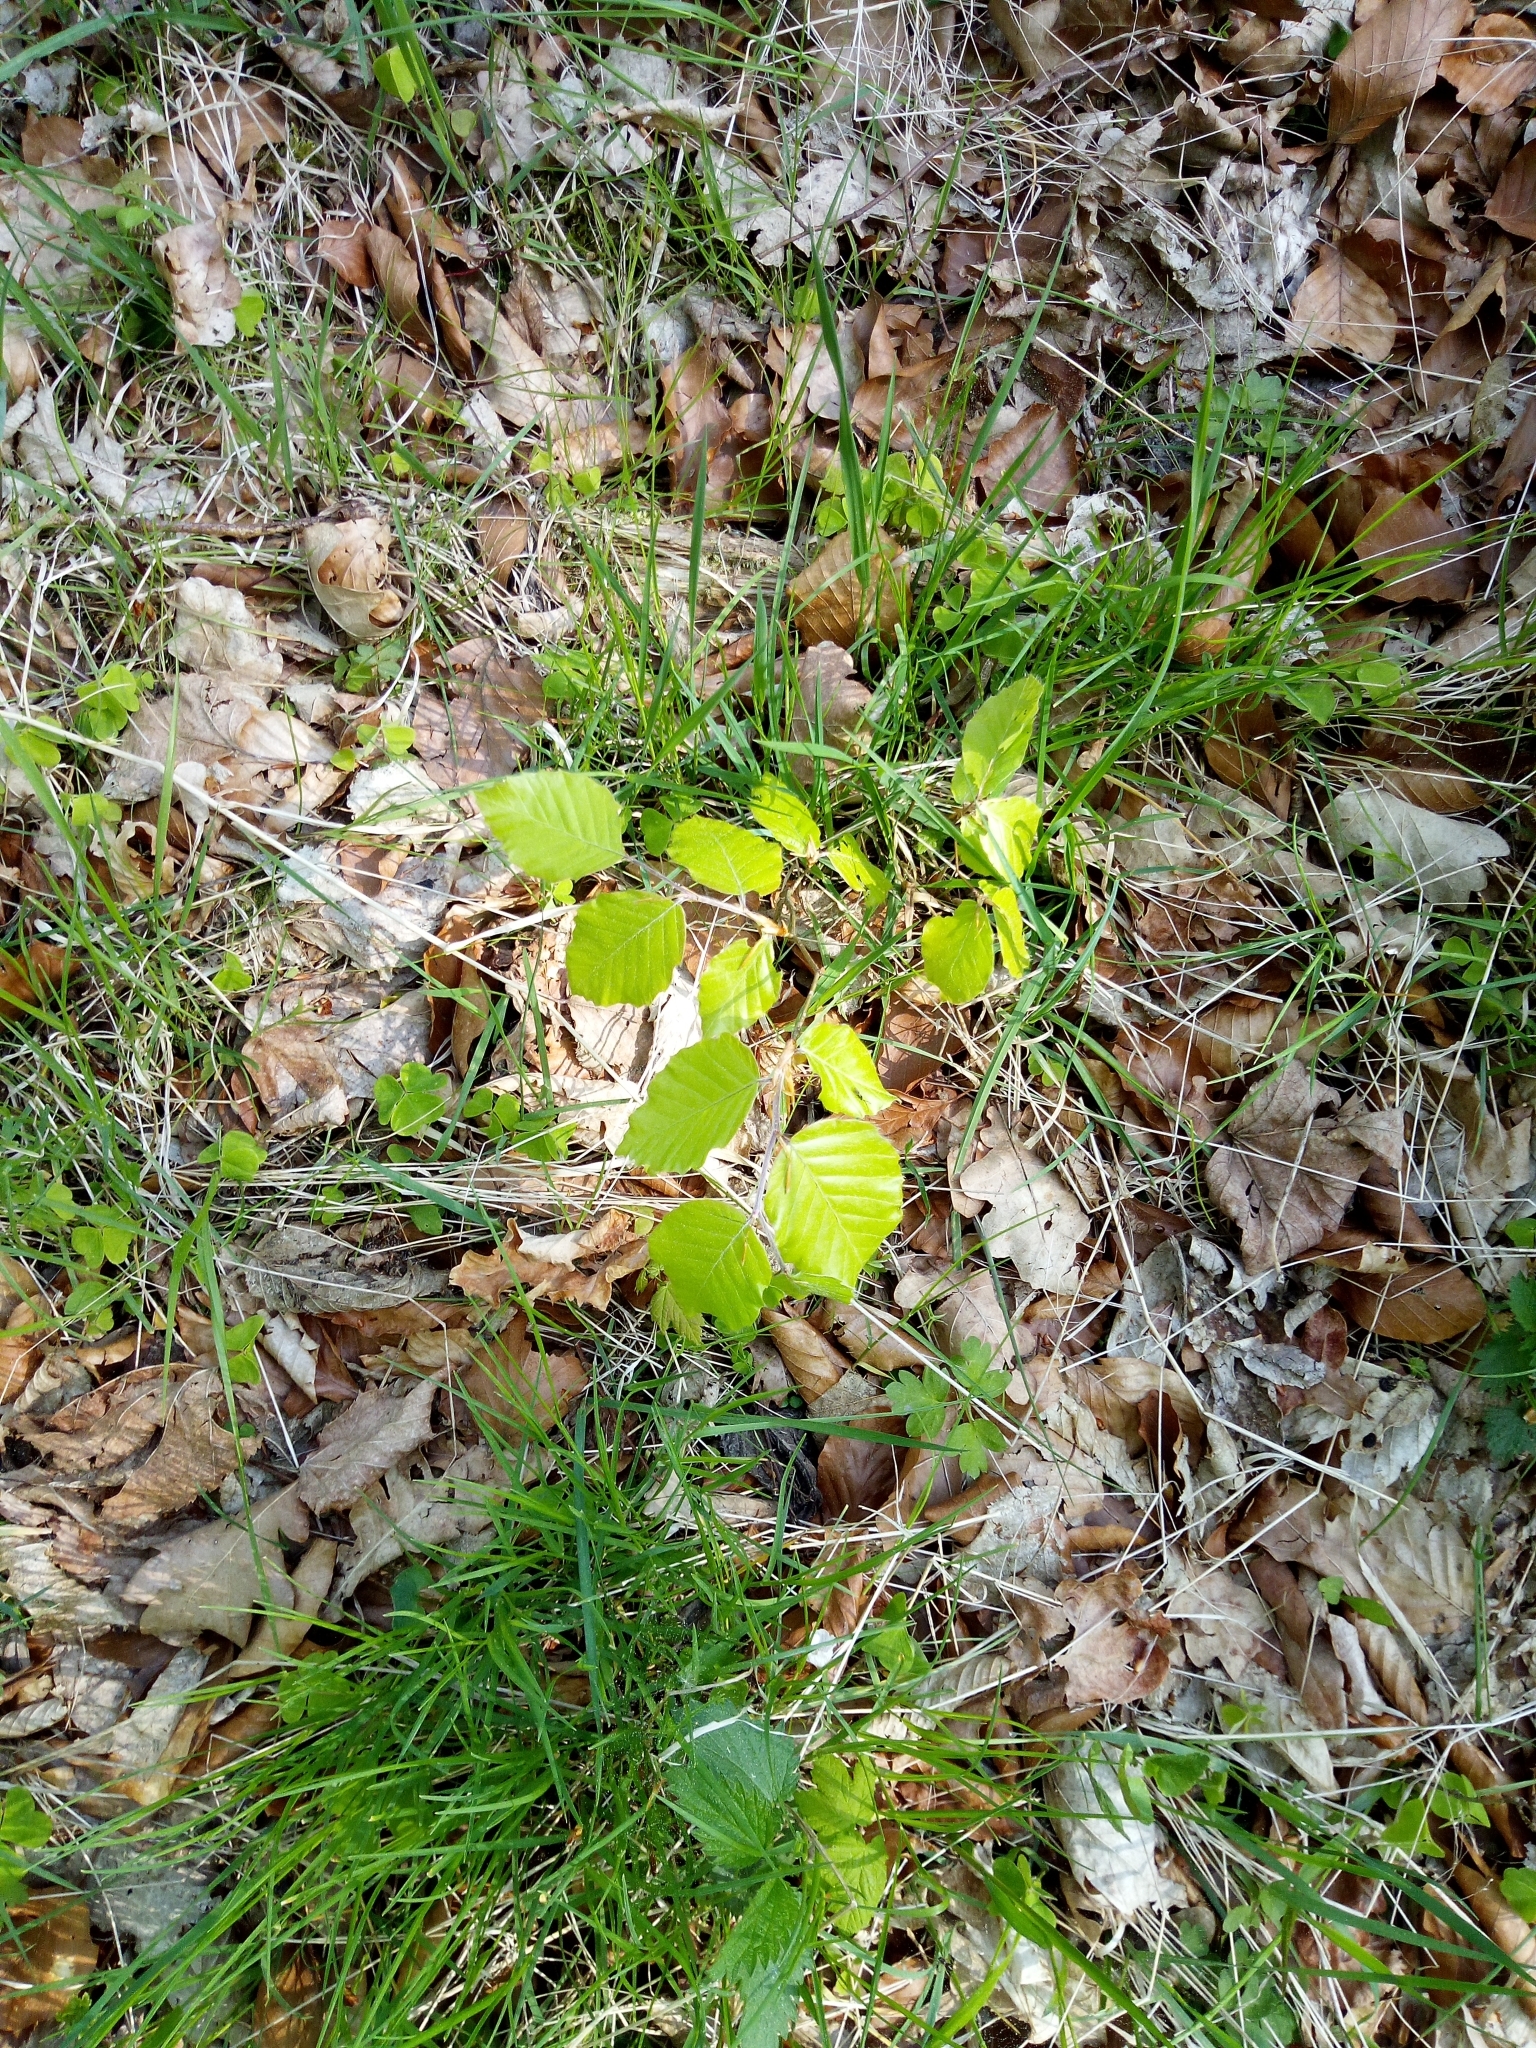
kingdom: Plantae
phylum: Tracheophyta
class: Magnoliopsida
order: Fagales
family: Fagaceae
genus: Fagus
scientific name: Fagus sylvatica
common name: Beech
